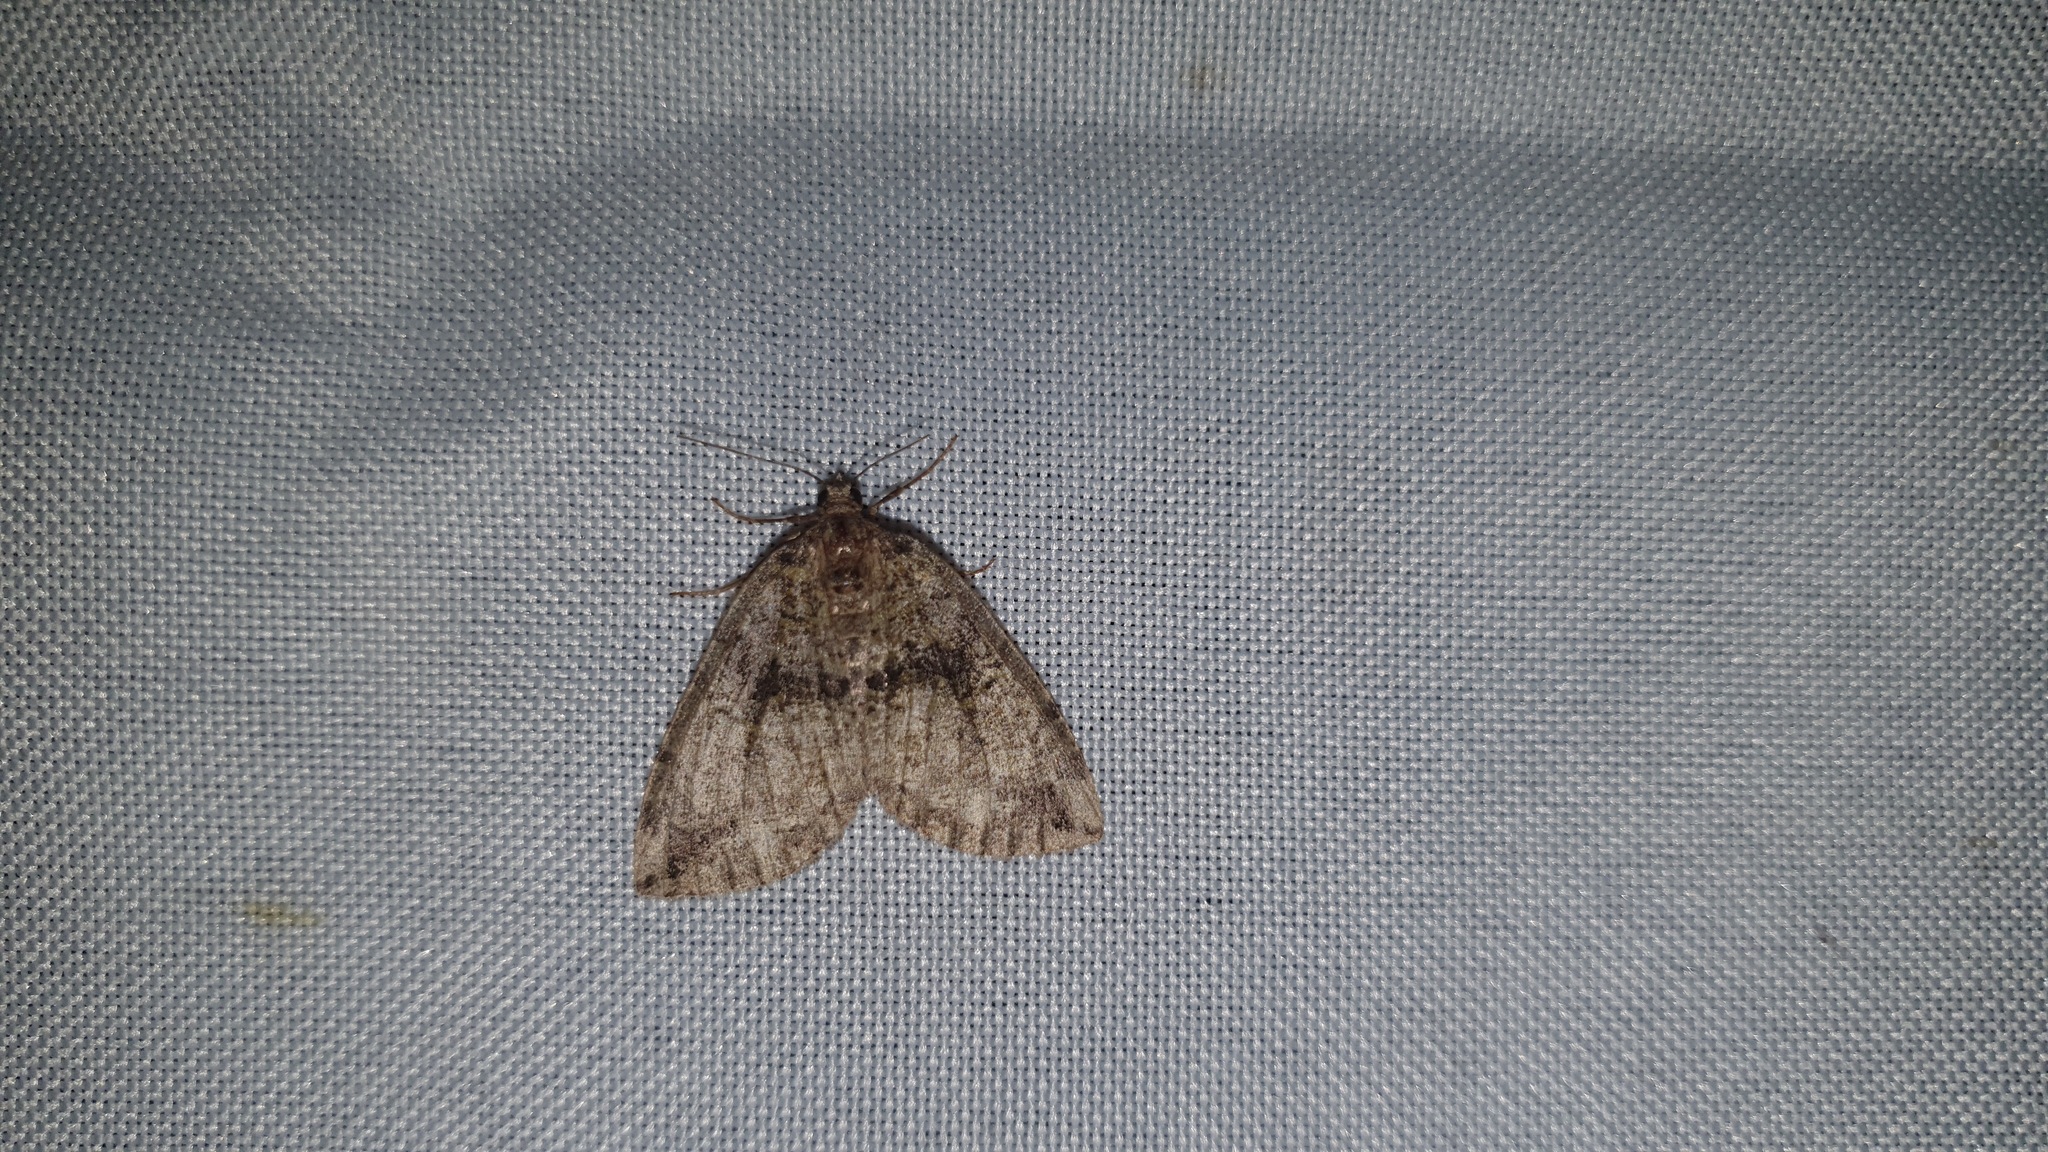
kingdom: Animalia
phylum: Arthropoda
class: Insecta
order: Lepidoptera
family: Geometridae
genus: Hydriomena
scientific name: Hydriomena furcata
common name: July highflyer
